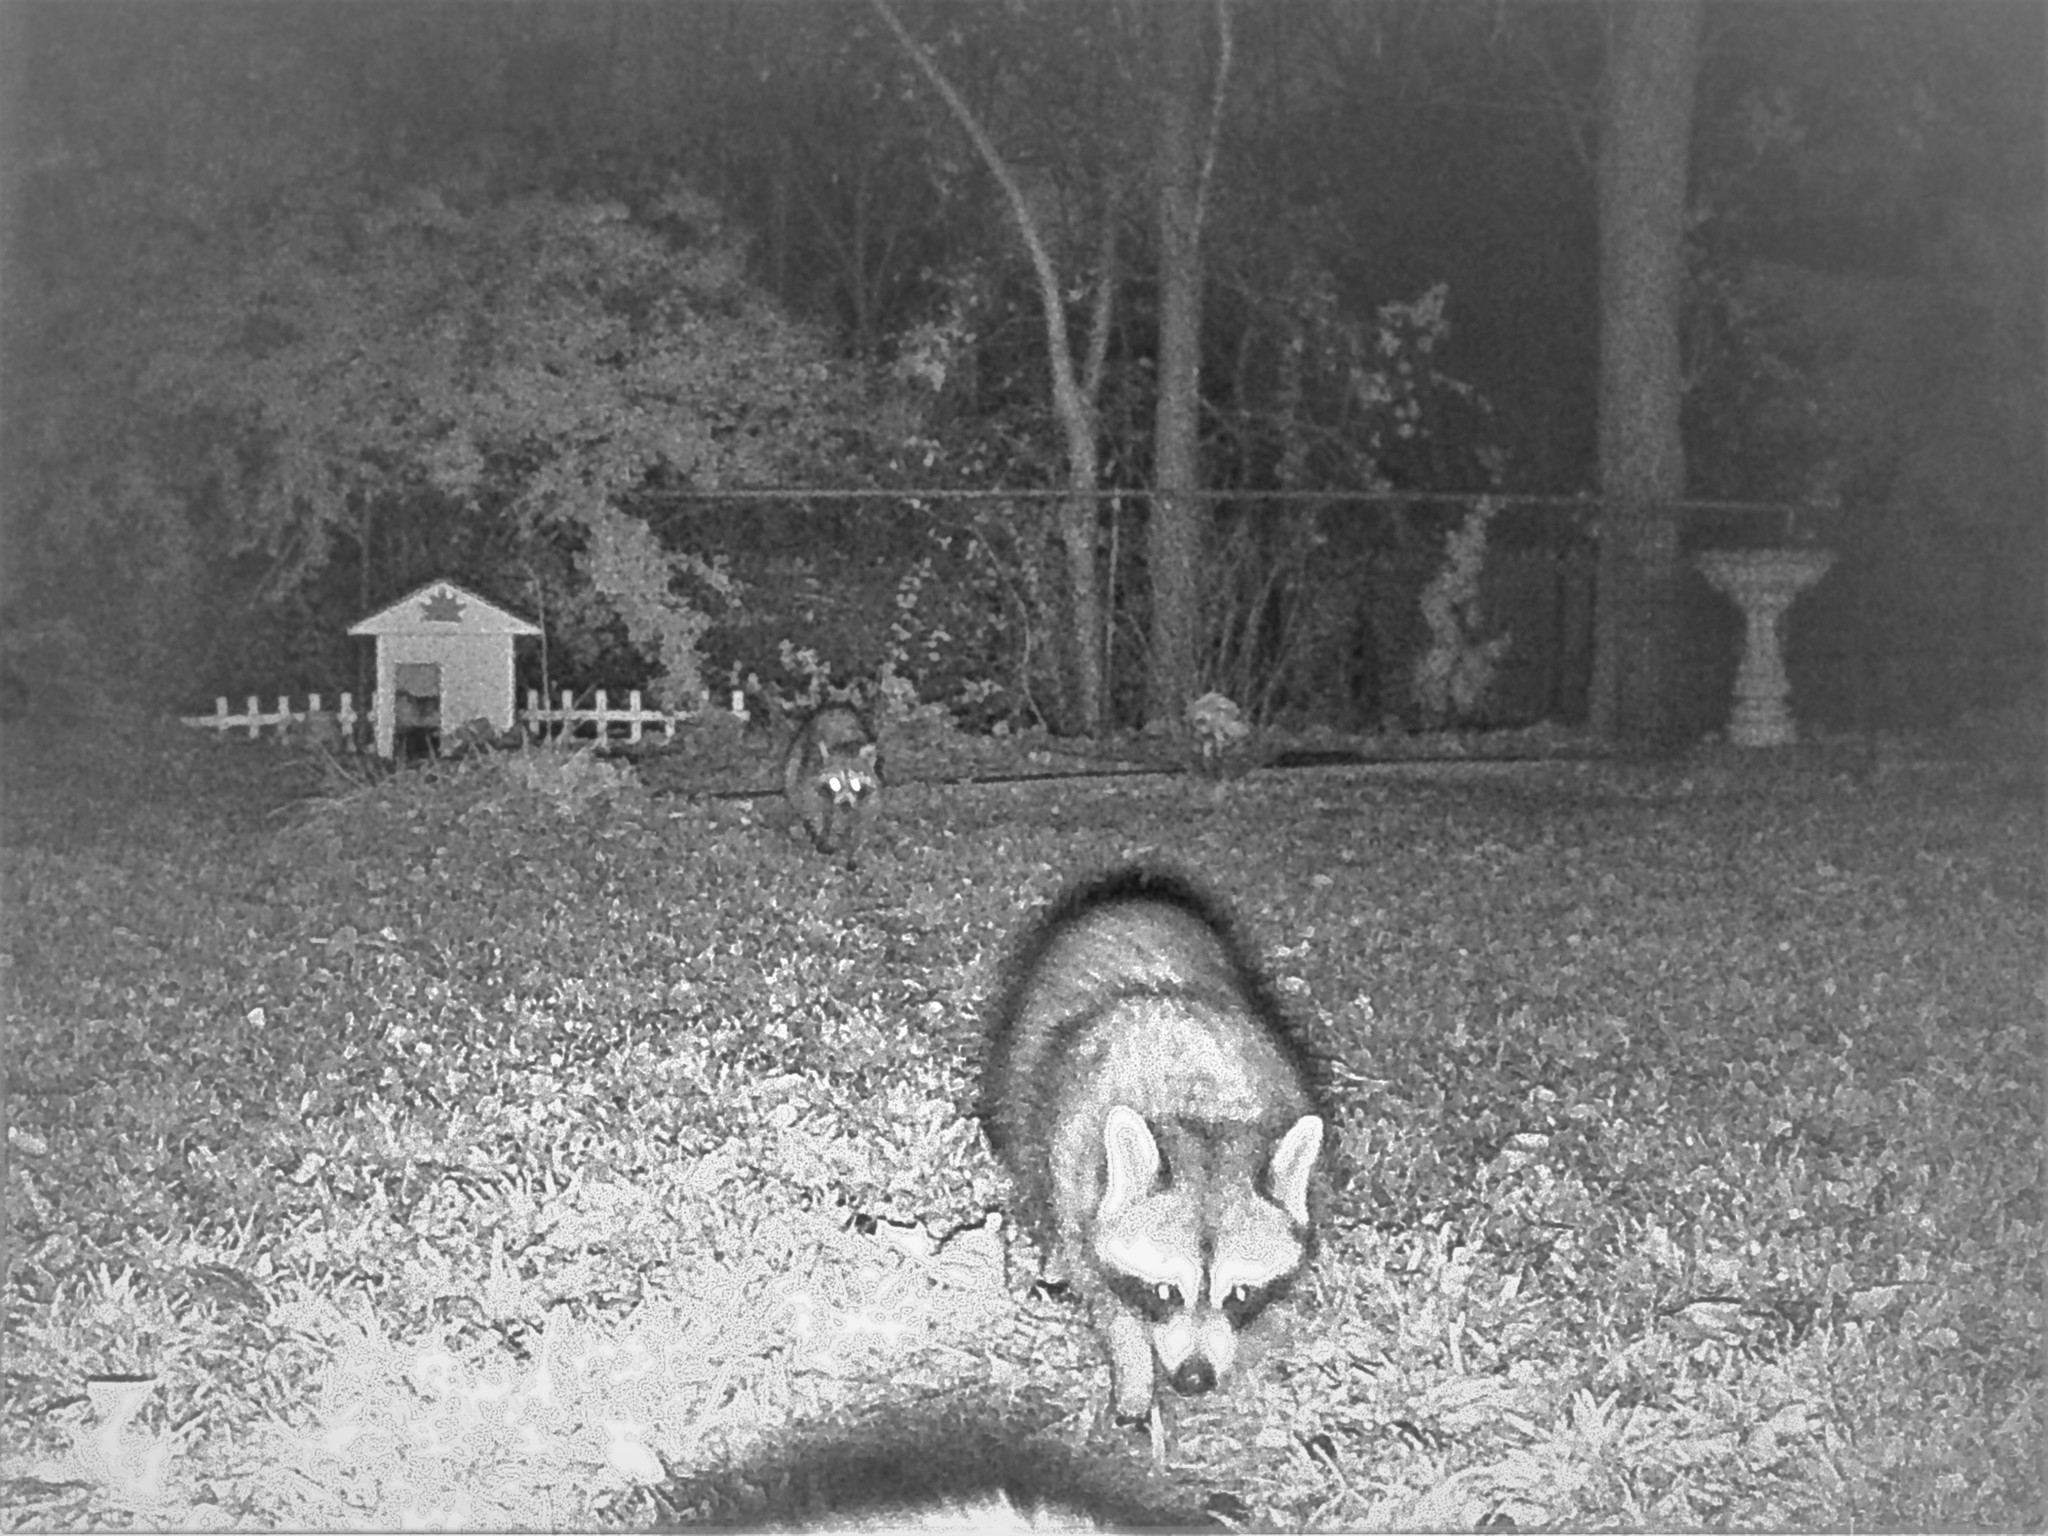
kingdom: Animalia
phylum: Chordata
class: Mammalia
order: Carnivora
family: Procyonidae
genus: Procyon
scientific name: Procyon lotor
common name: Raccoon
